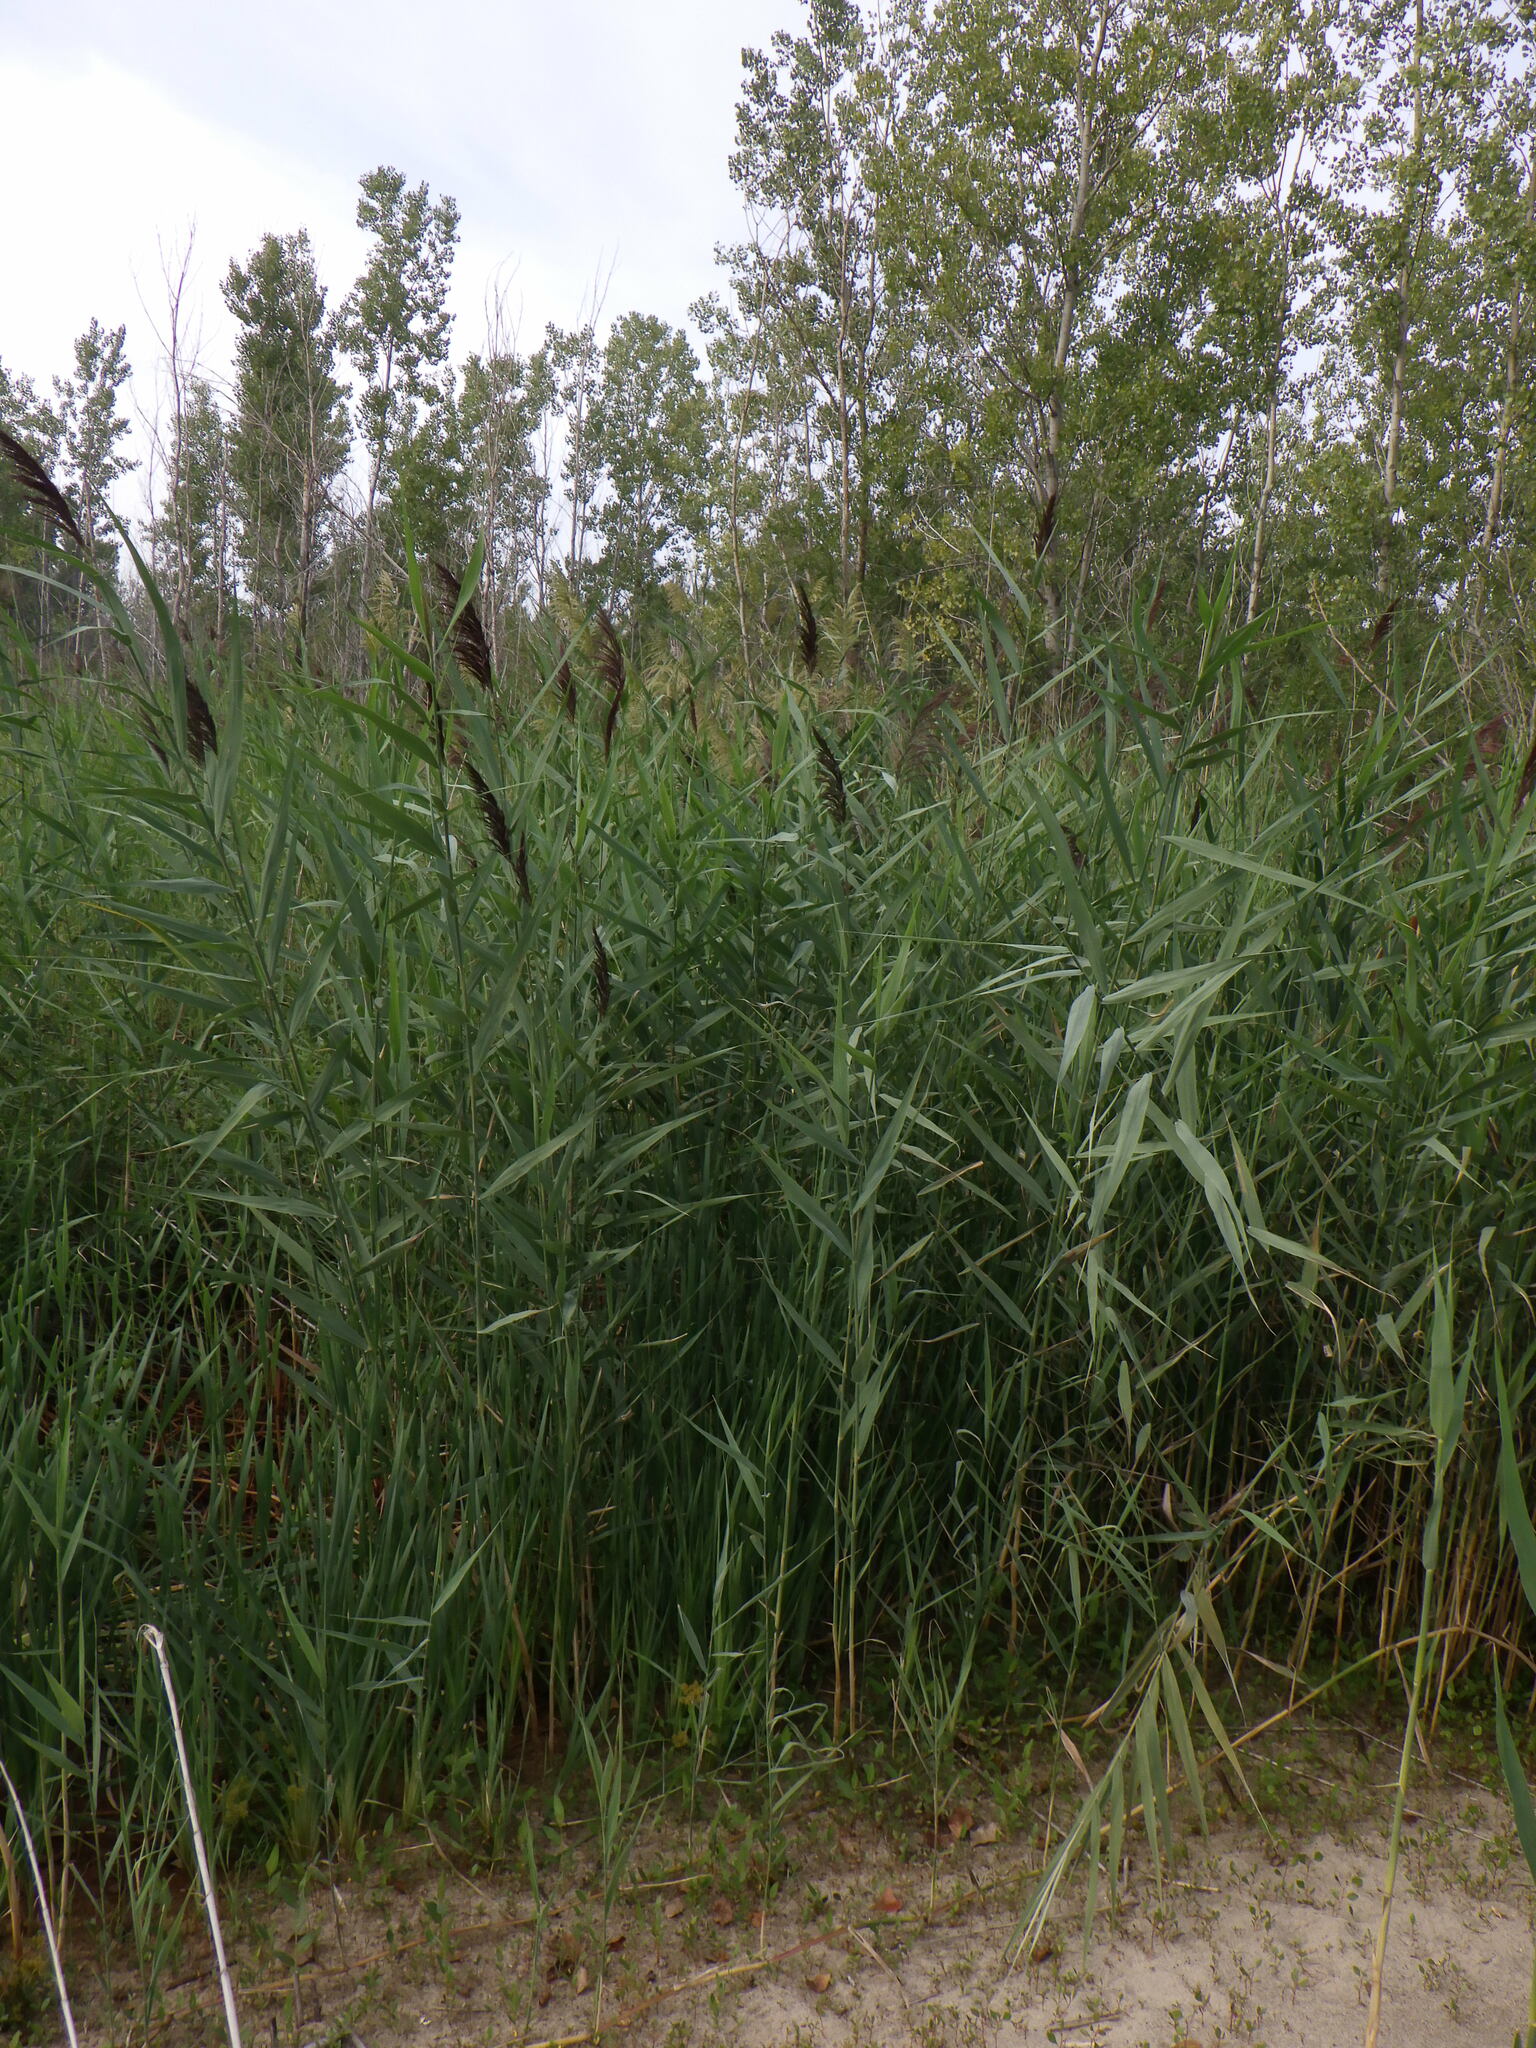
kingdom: Plantae
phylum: Tracheophyta
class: Liliopsida
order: Poales
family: Poaceae
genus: Phragmites
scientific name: Phragmites australis
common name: Common reed
